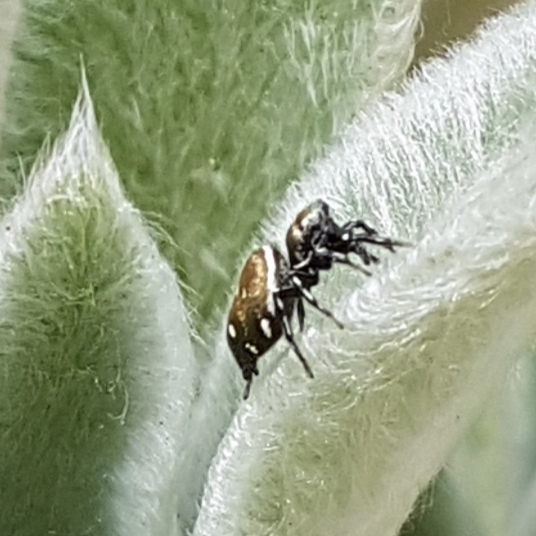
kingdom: Animalia
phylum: Arthropoda
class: Arachnida
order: Araneae
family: Salticidae
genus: Heliophanus
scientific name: Heliophanus kochii
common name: Sun jumping spider
